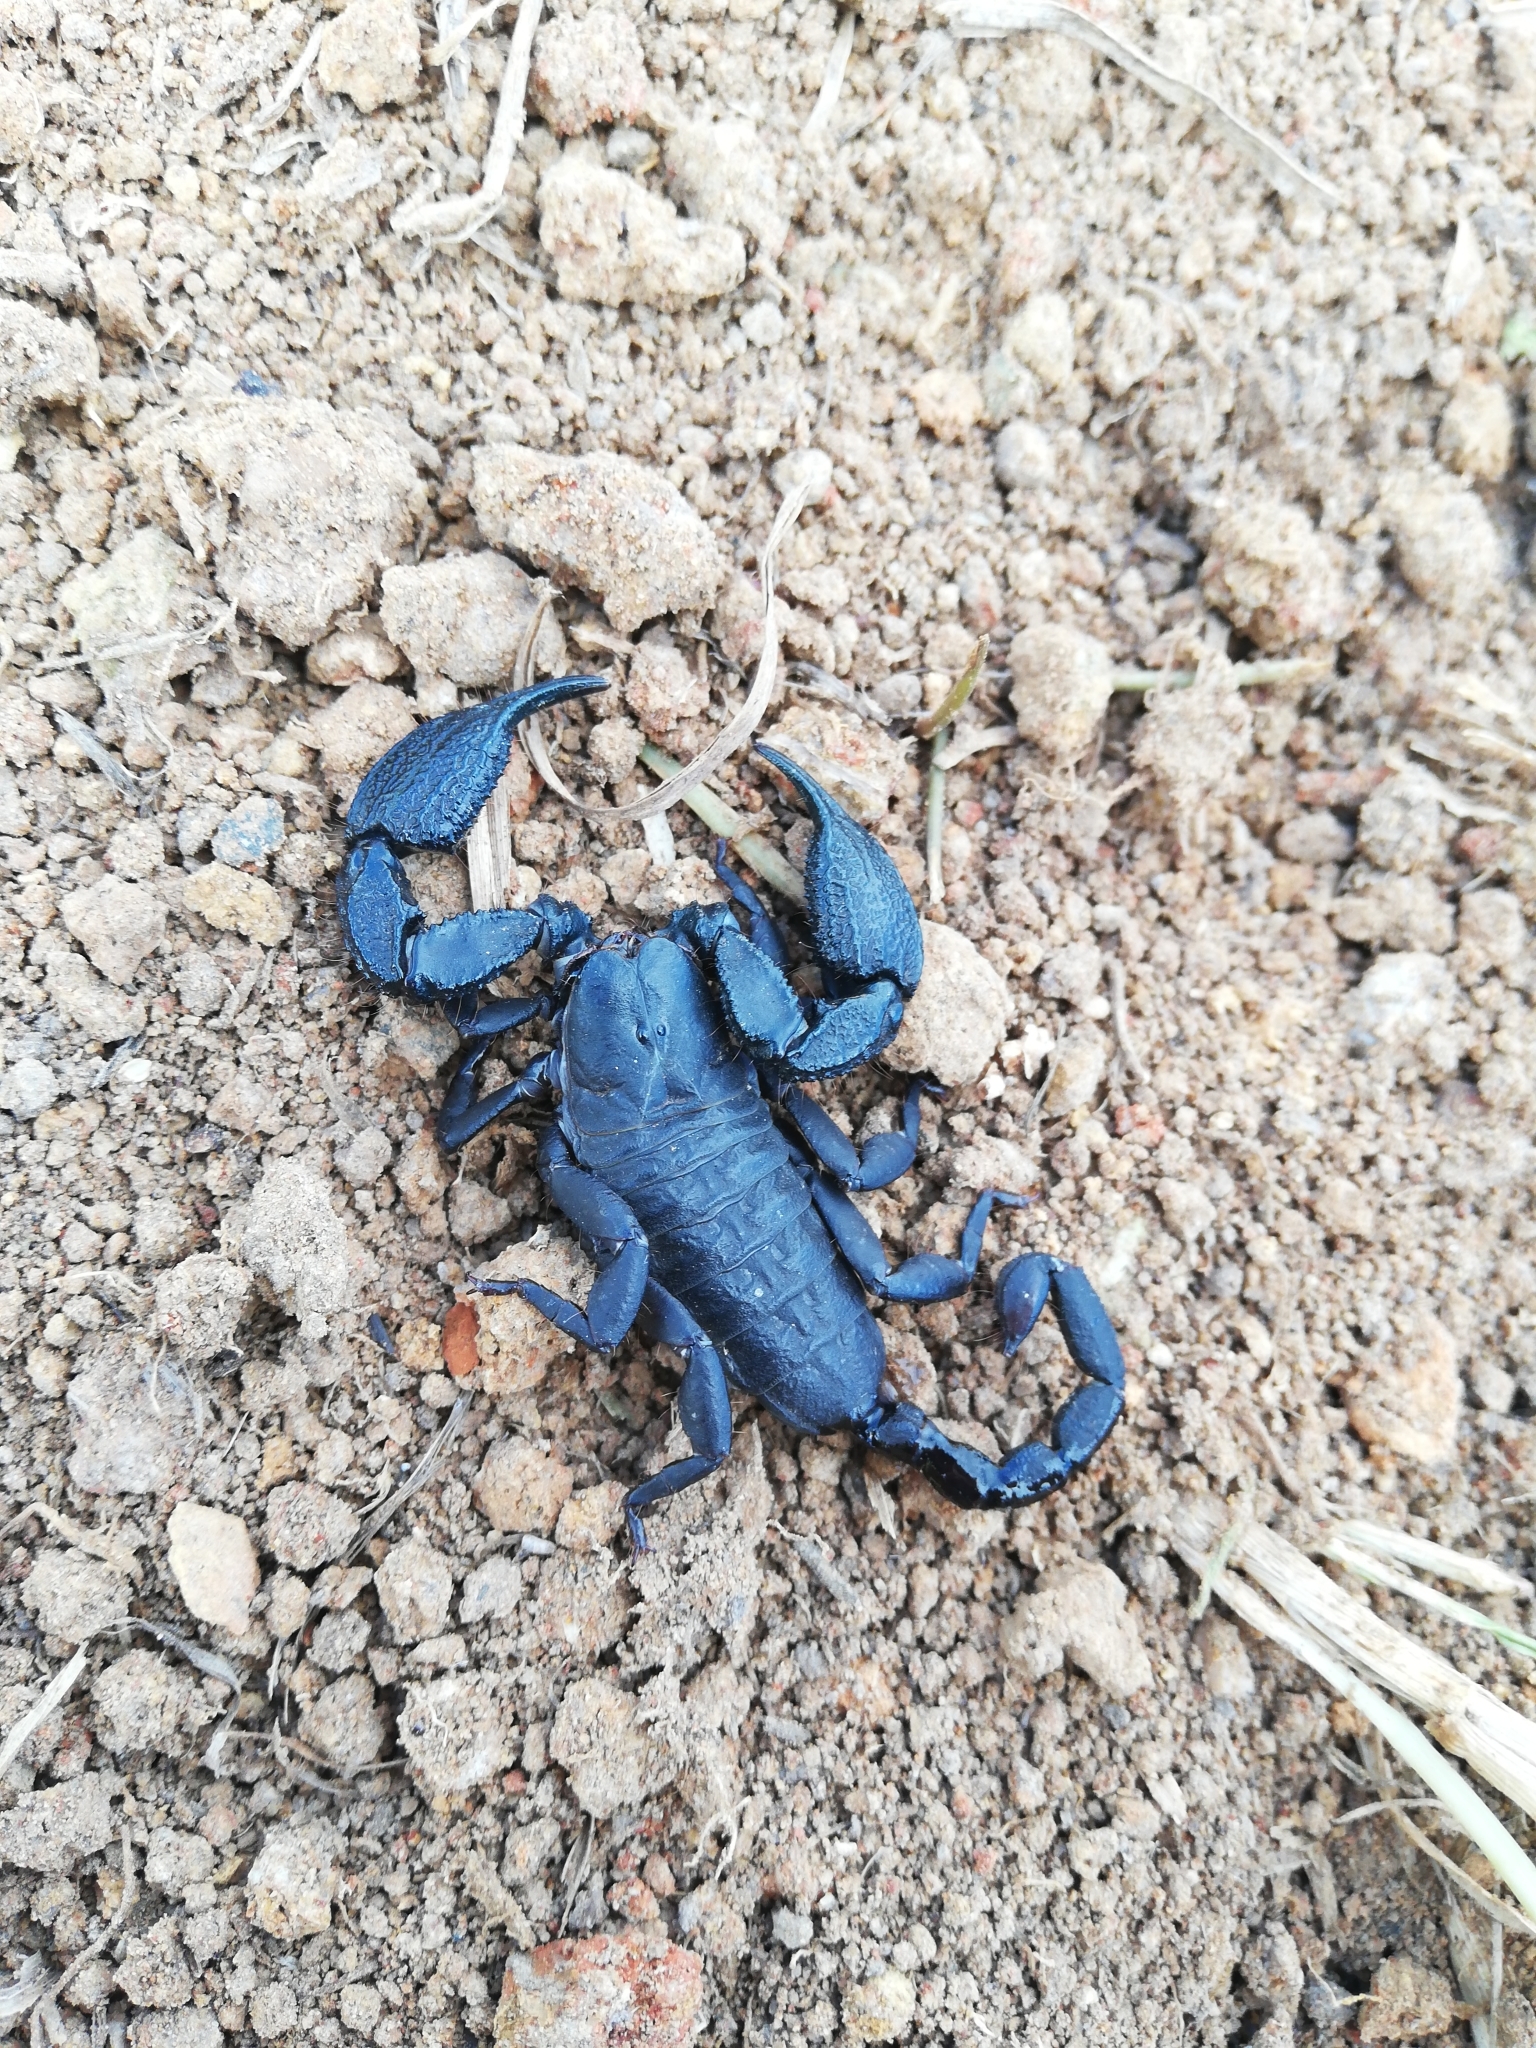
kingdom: Animalia
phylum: Arthropoda
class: Arachnida
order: Scorpiones
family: Hormuridae
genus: Opisthacanthus
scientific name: Opisthacanthus capensis
